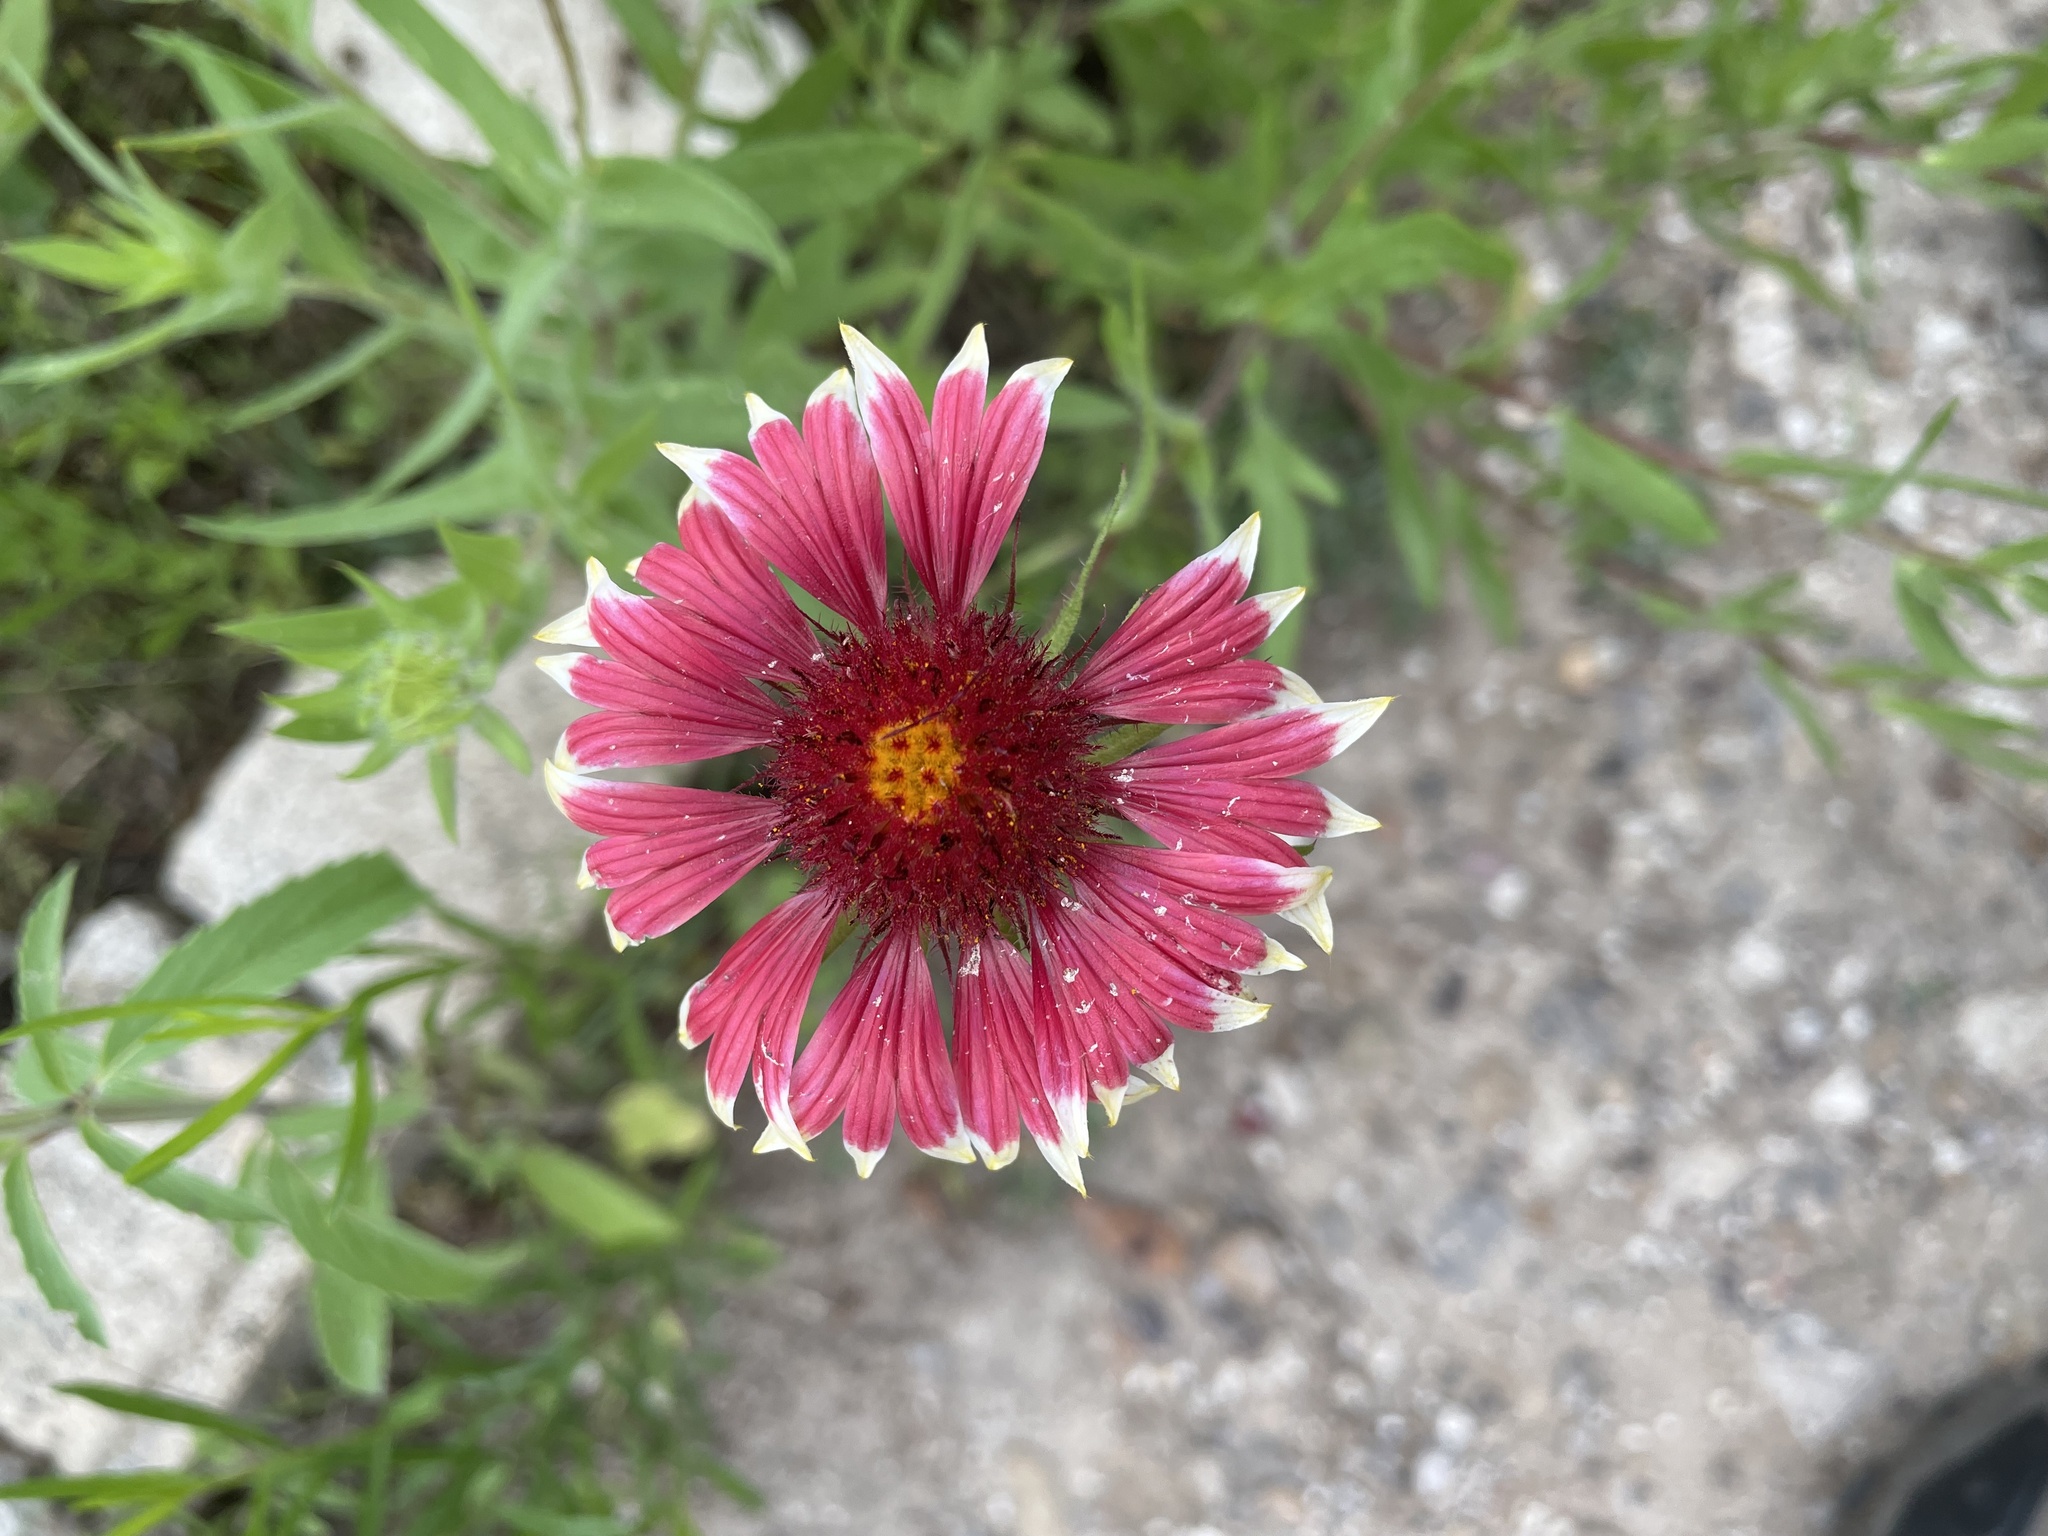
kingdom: Plantae
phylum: Tracheophyta
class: Magnoliopsida
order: Asterales
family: Asteraceae
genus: Gaillardia
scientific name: Gaillardia pulchella
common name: Firewheel
